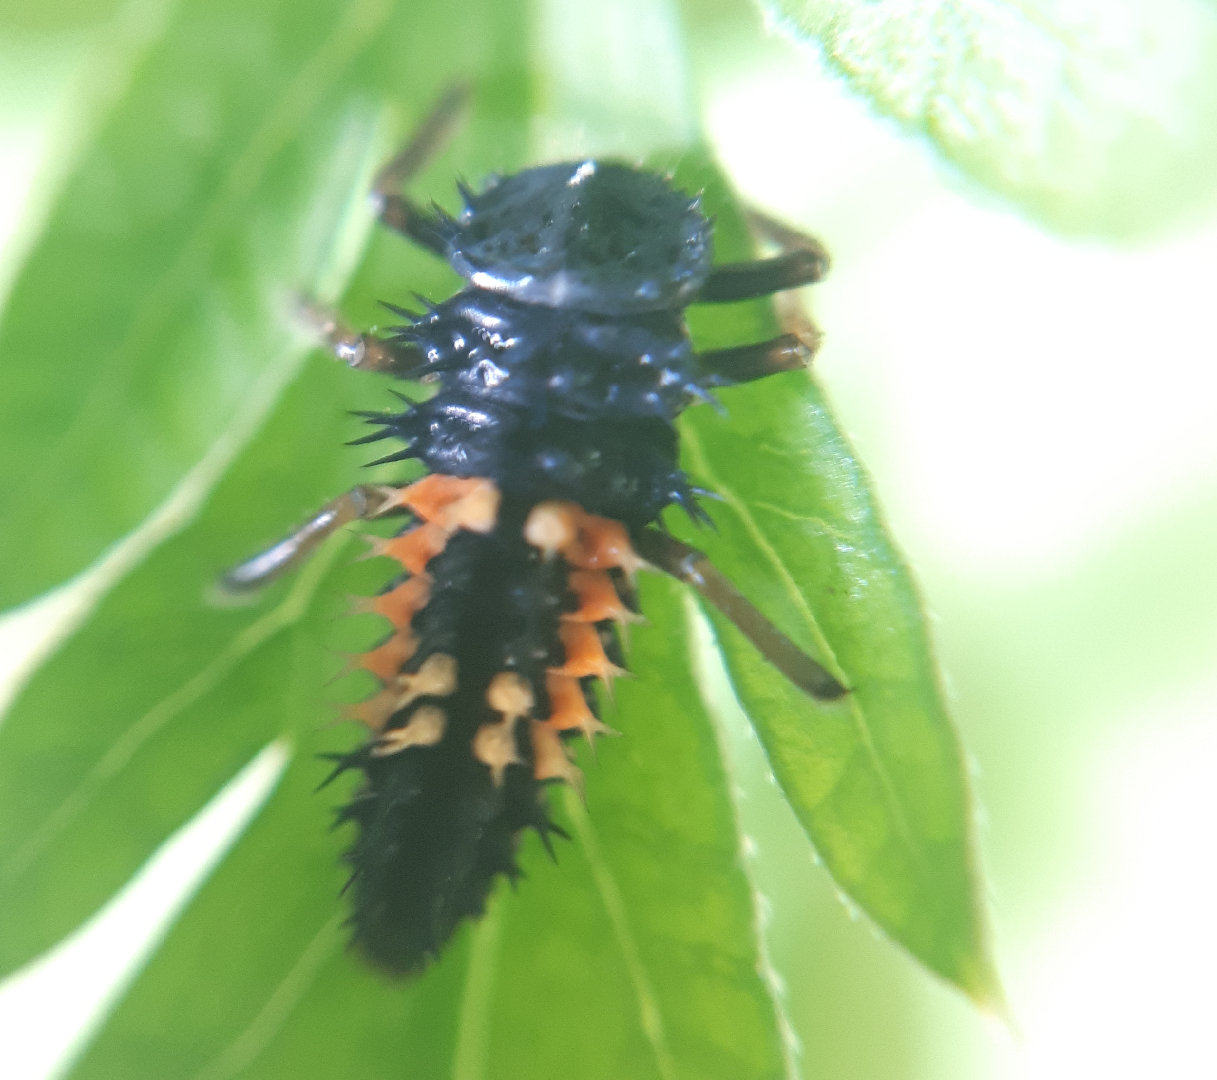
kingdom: Animalia
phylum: Arthropoda
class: Insecta
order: Coleoptera
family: Coccinellidae
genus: Harmonia
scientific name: Harmonia axyridis
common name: Harlequin ladybird
